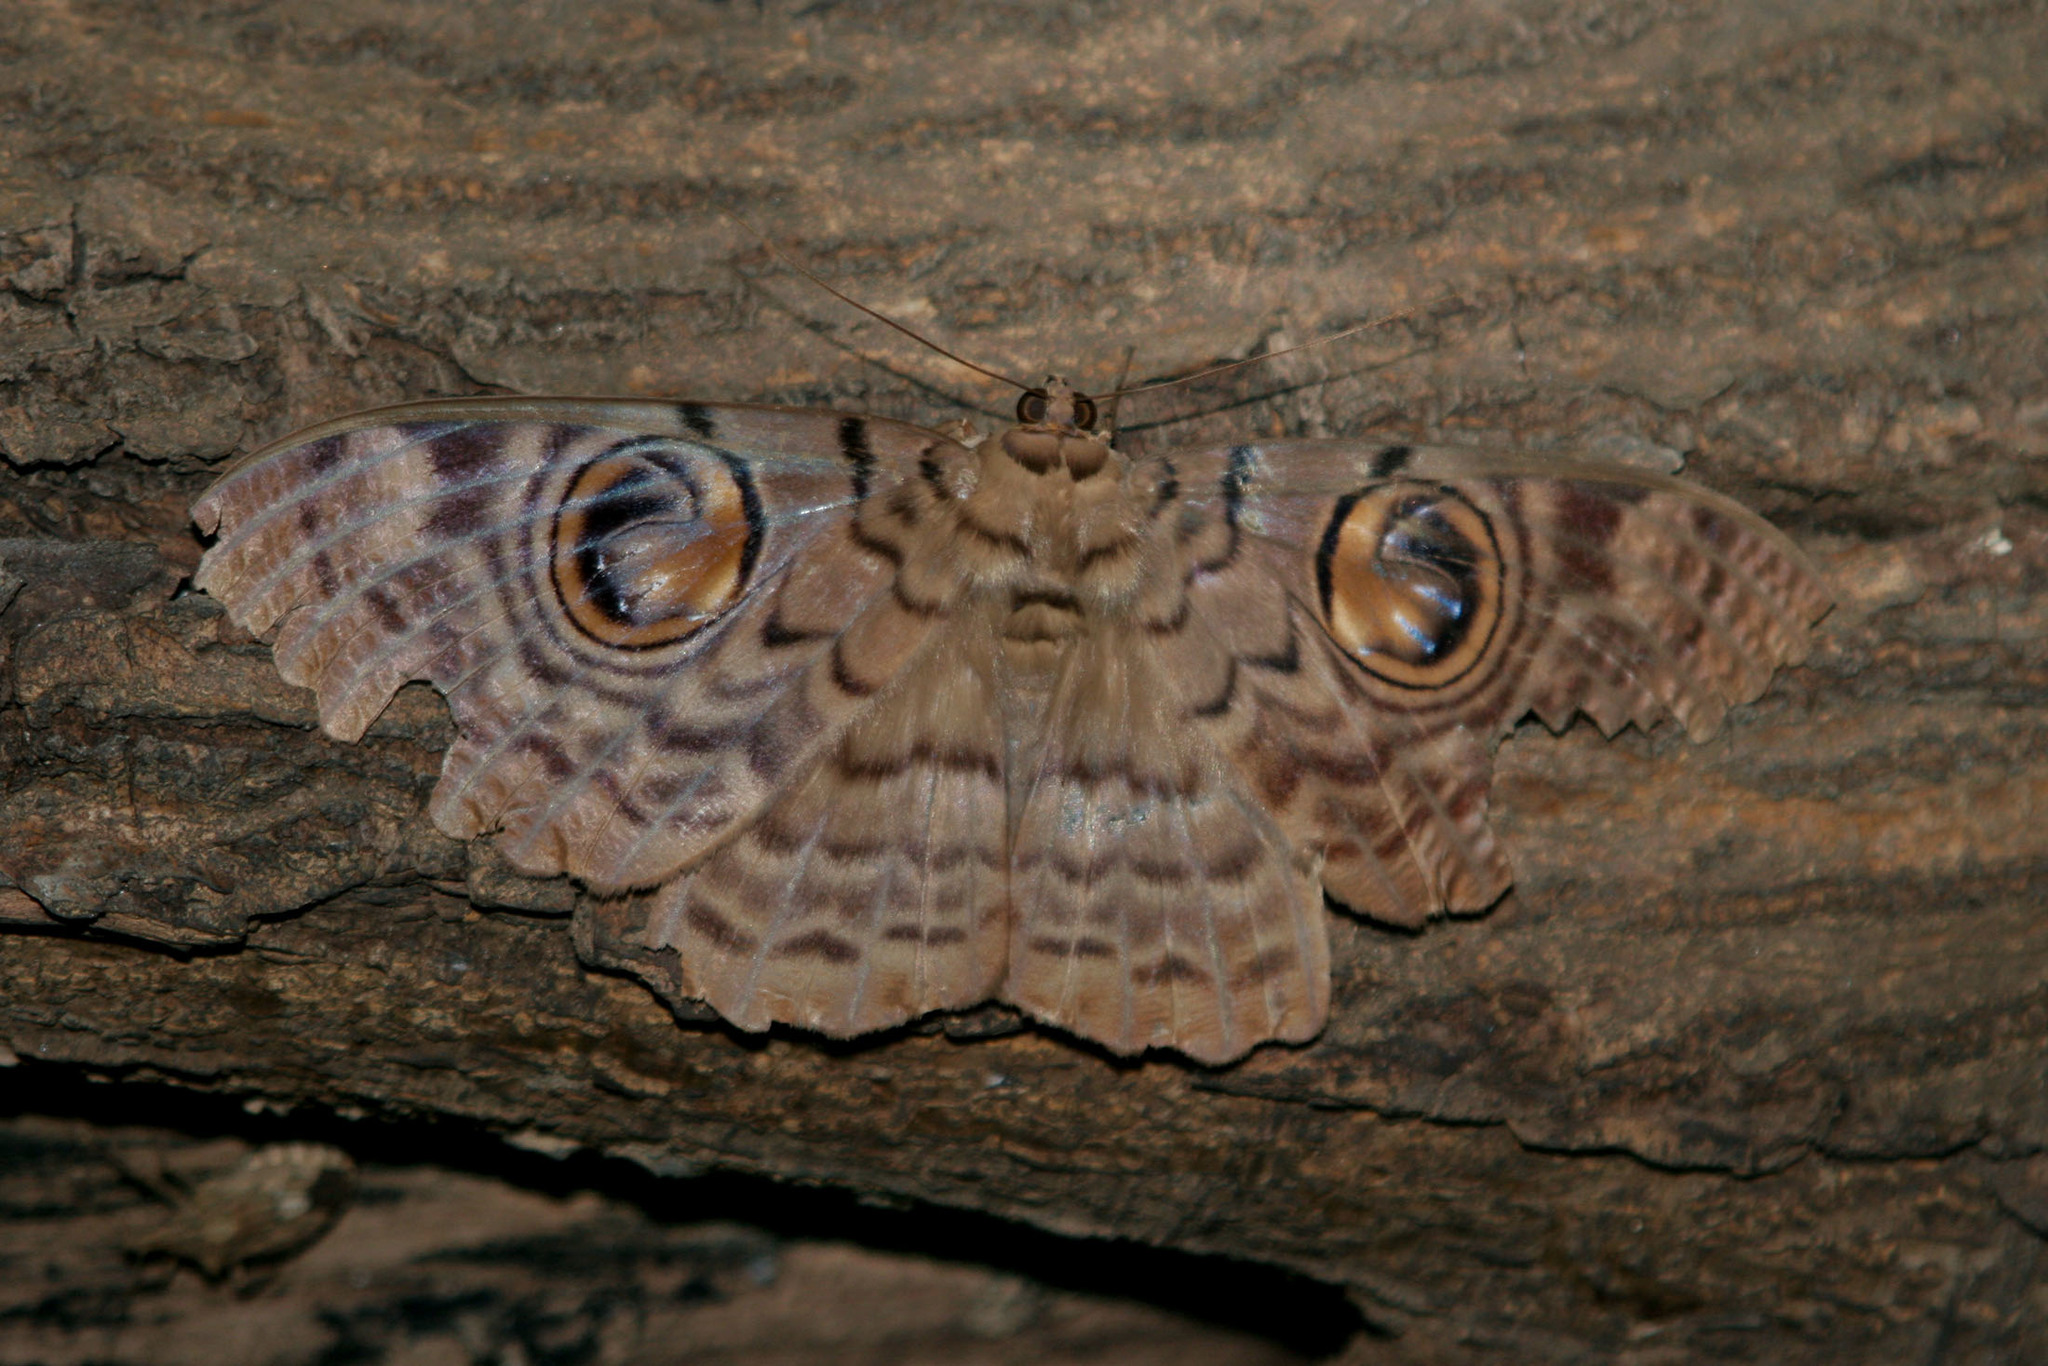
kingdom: Animalia
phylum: Arthropoda
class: Insecta
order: Lepidoptera
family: Erebidae
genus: Erebus
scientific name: Erebus macrops
